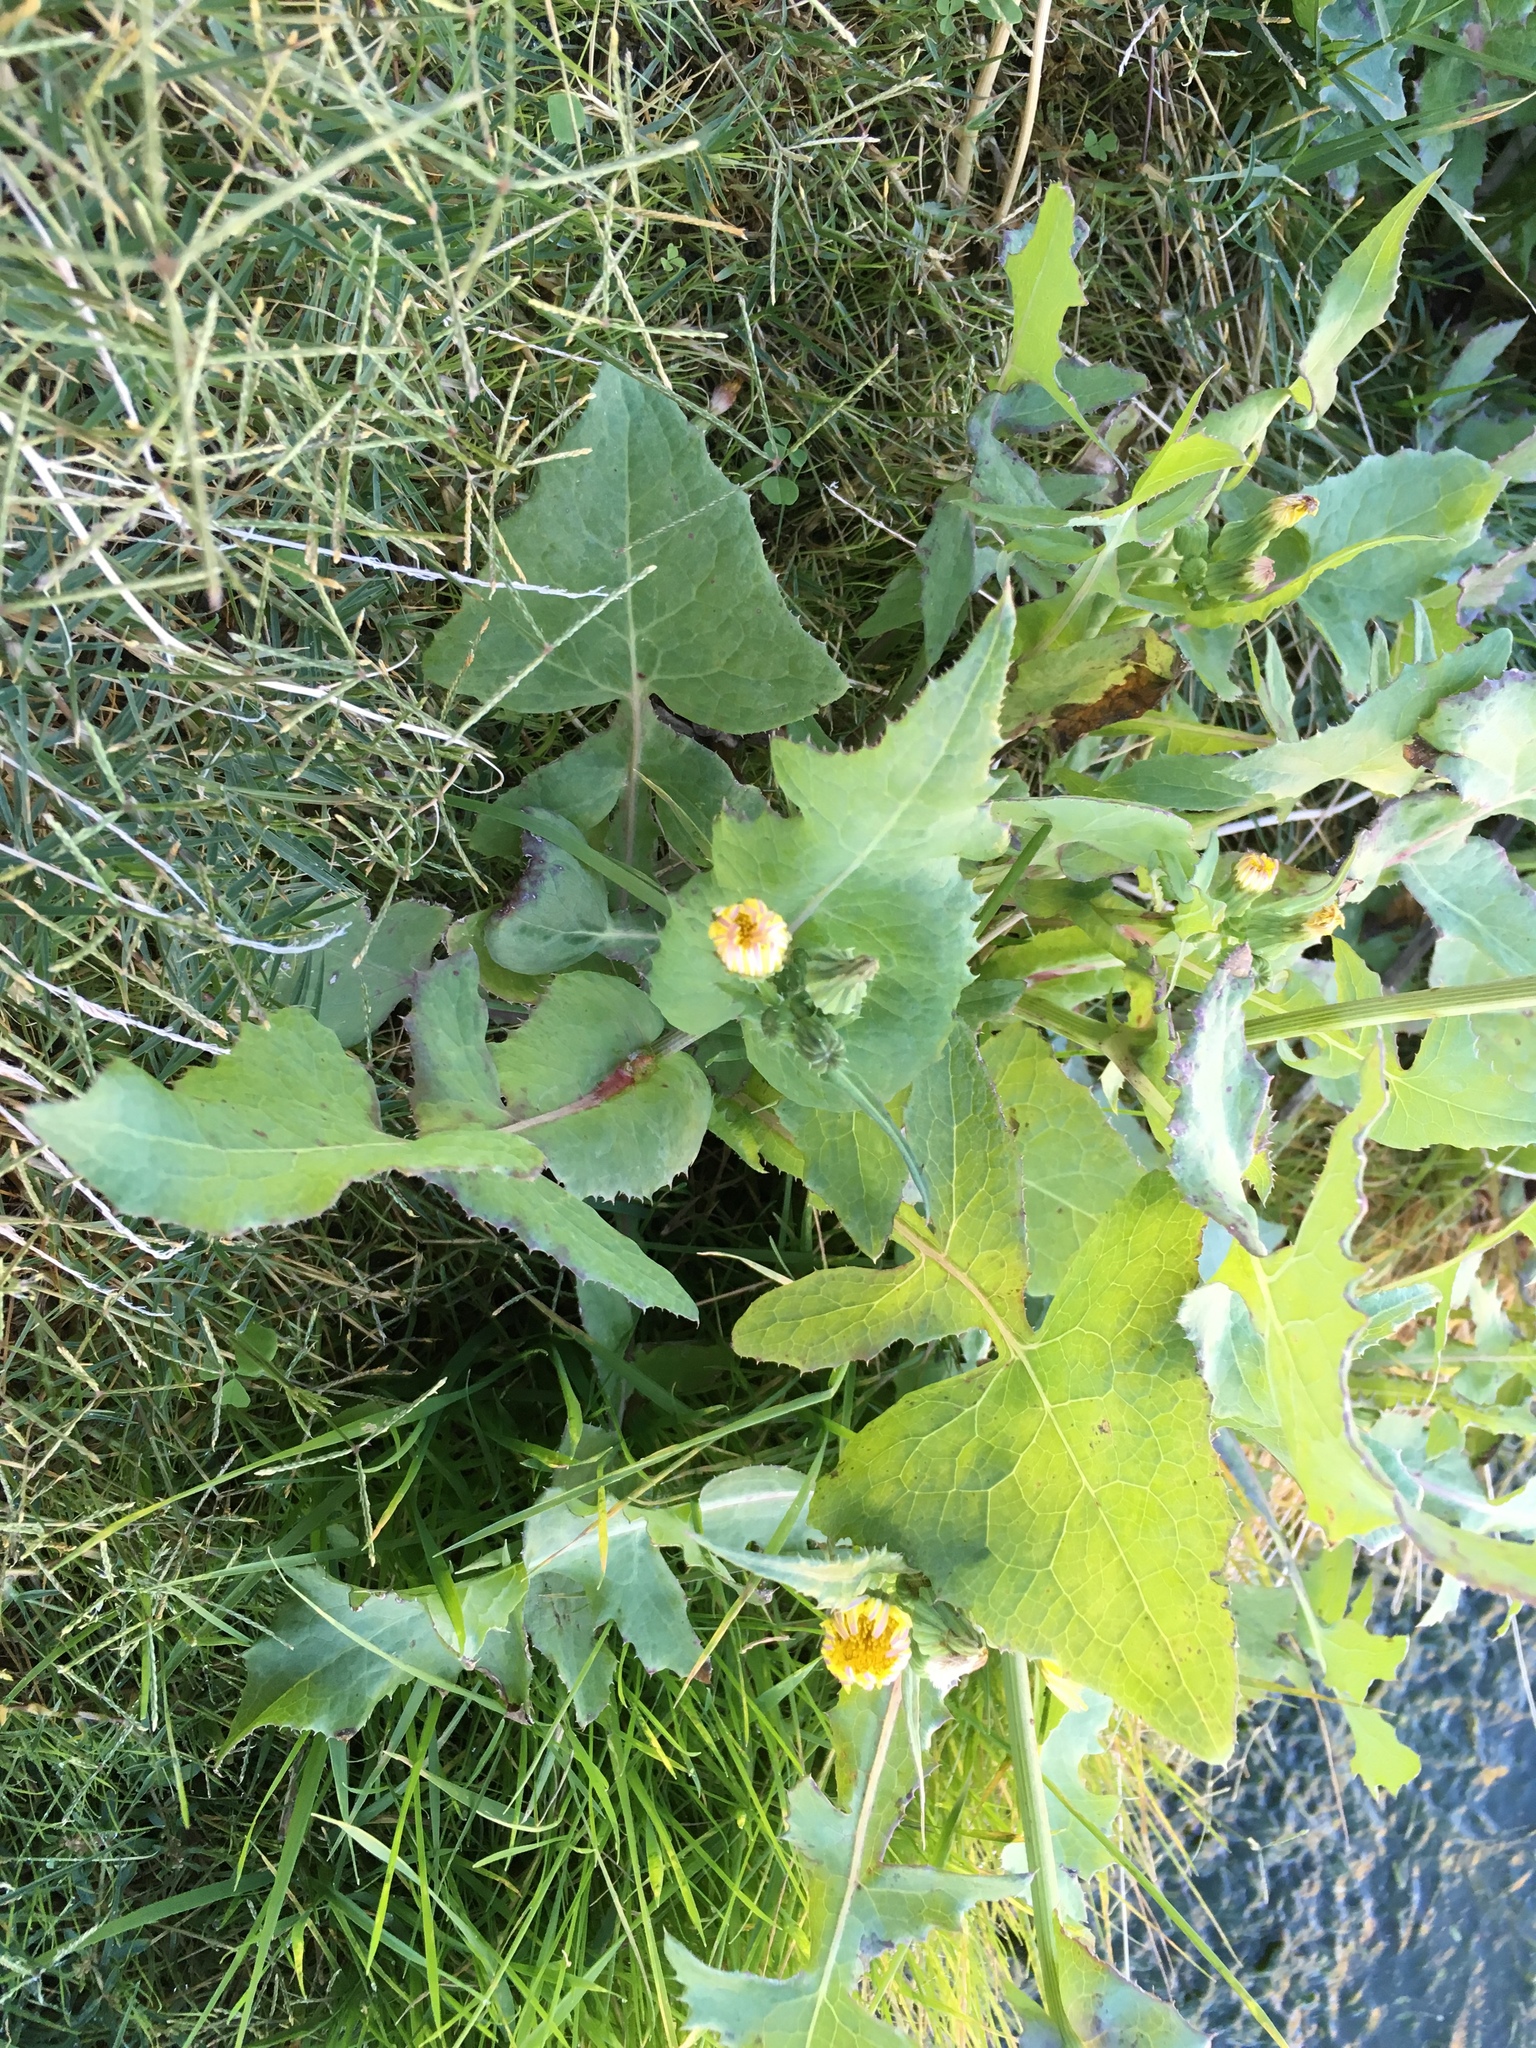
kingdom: Plantae
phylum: Tracheophyta
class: Magnoliopsida
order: Asterales
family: Asteraceae
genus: Sonchus
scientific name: Sonchus oleraceus
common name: Common sowthistle
